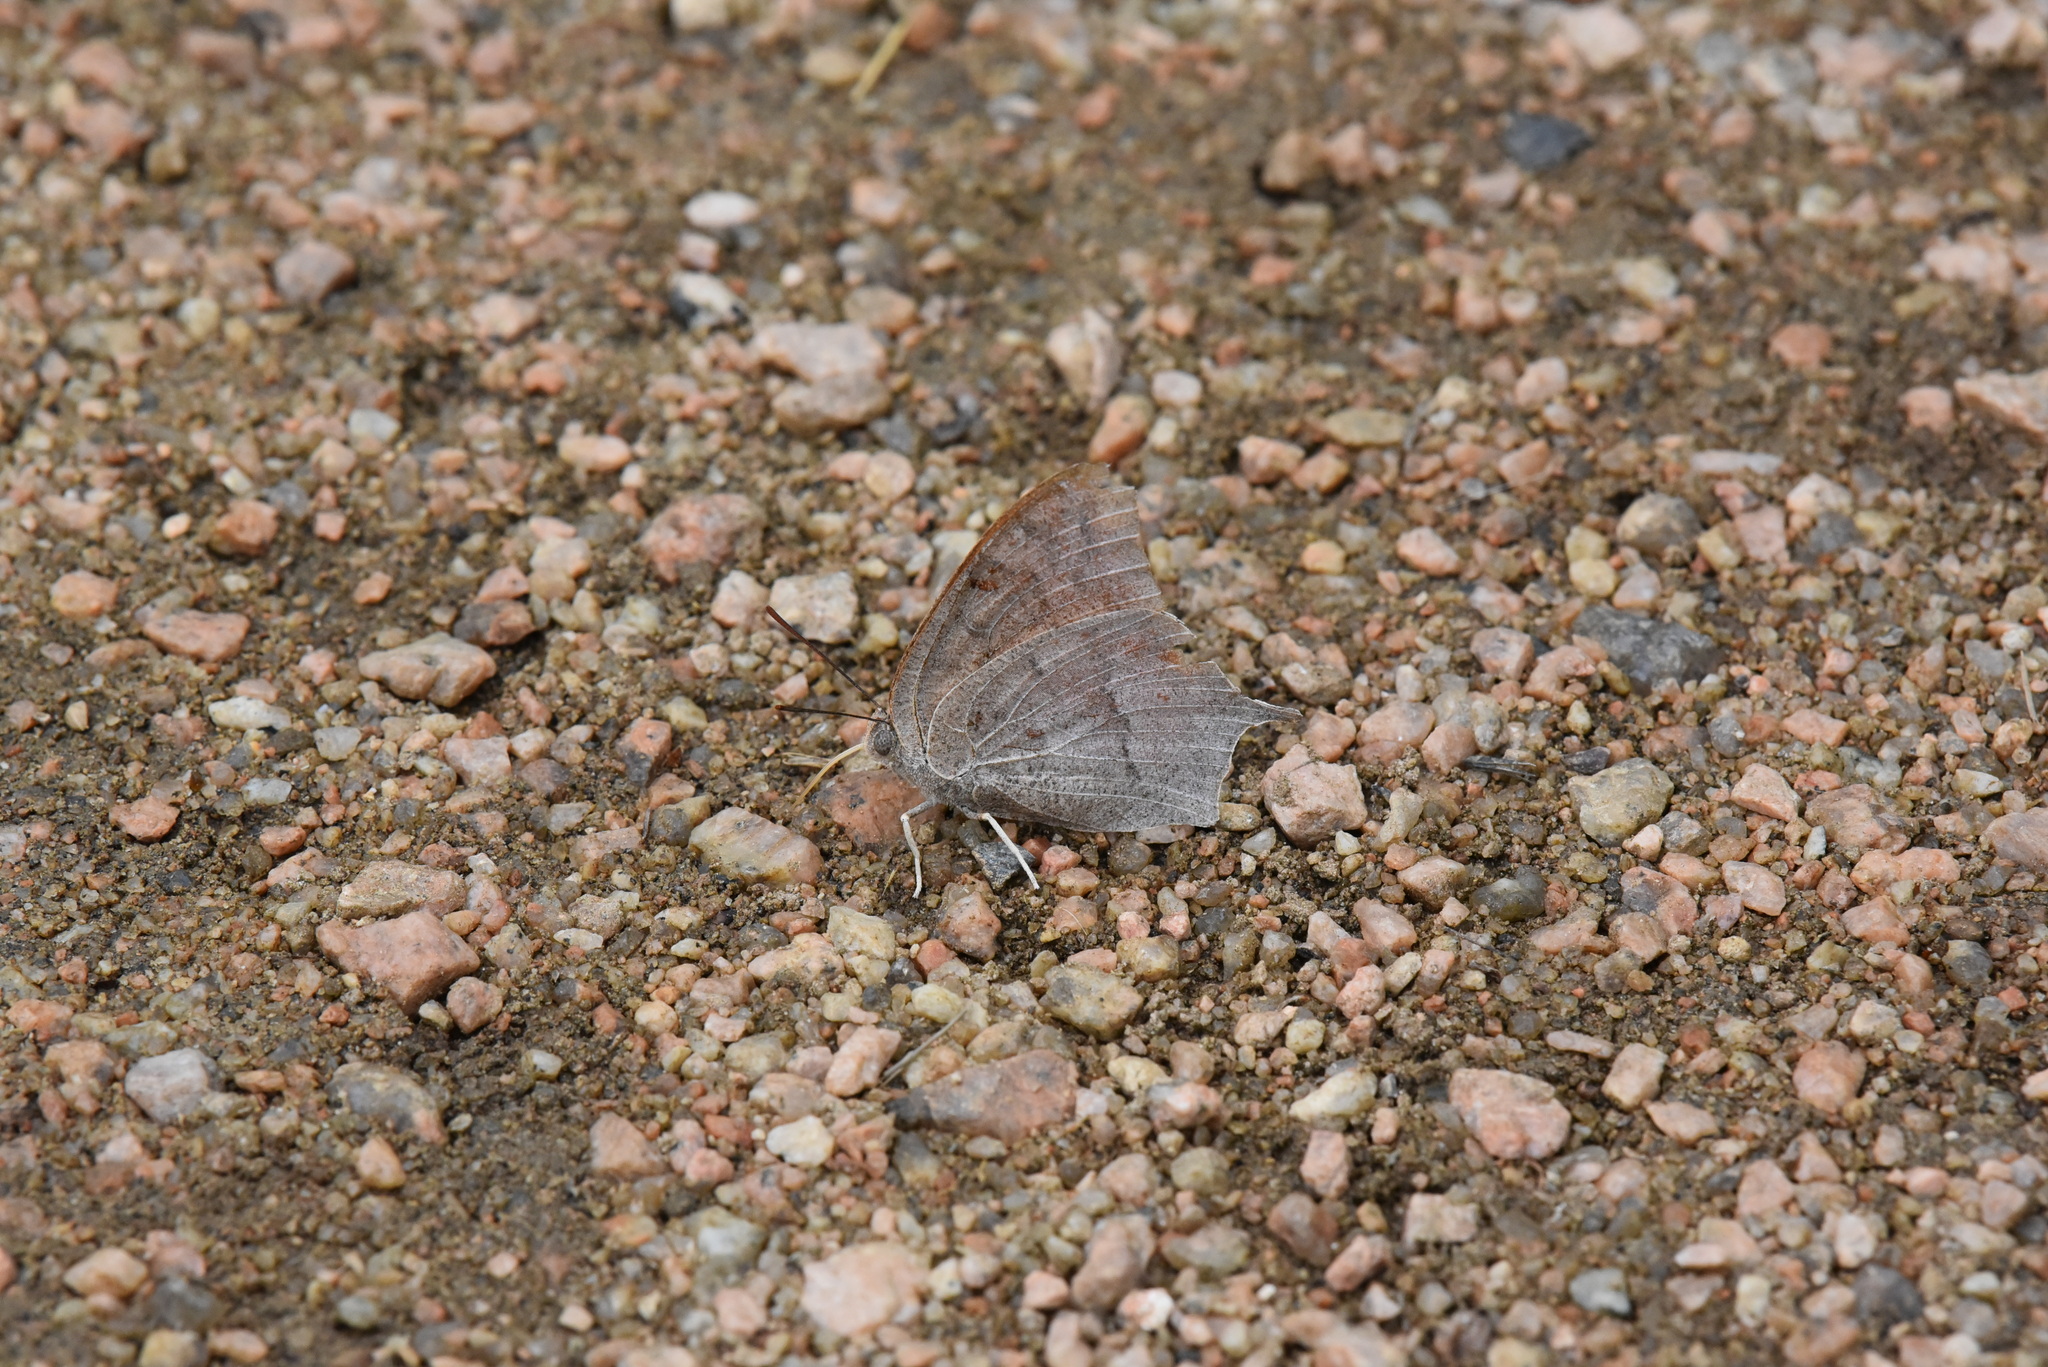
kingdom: Animalia
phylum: Arthropoda
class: Insecta
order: Lepidoptera
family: Nymphalidae
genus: Anaea
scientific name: Anaea andria
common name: Goatweed leafwing
